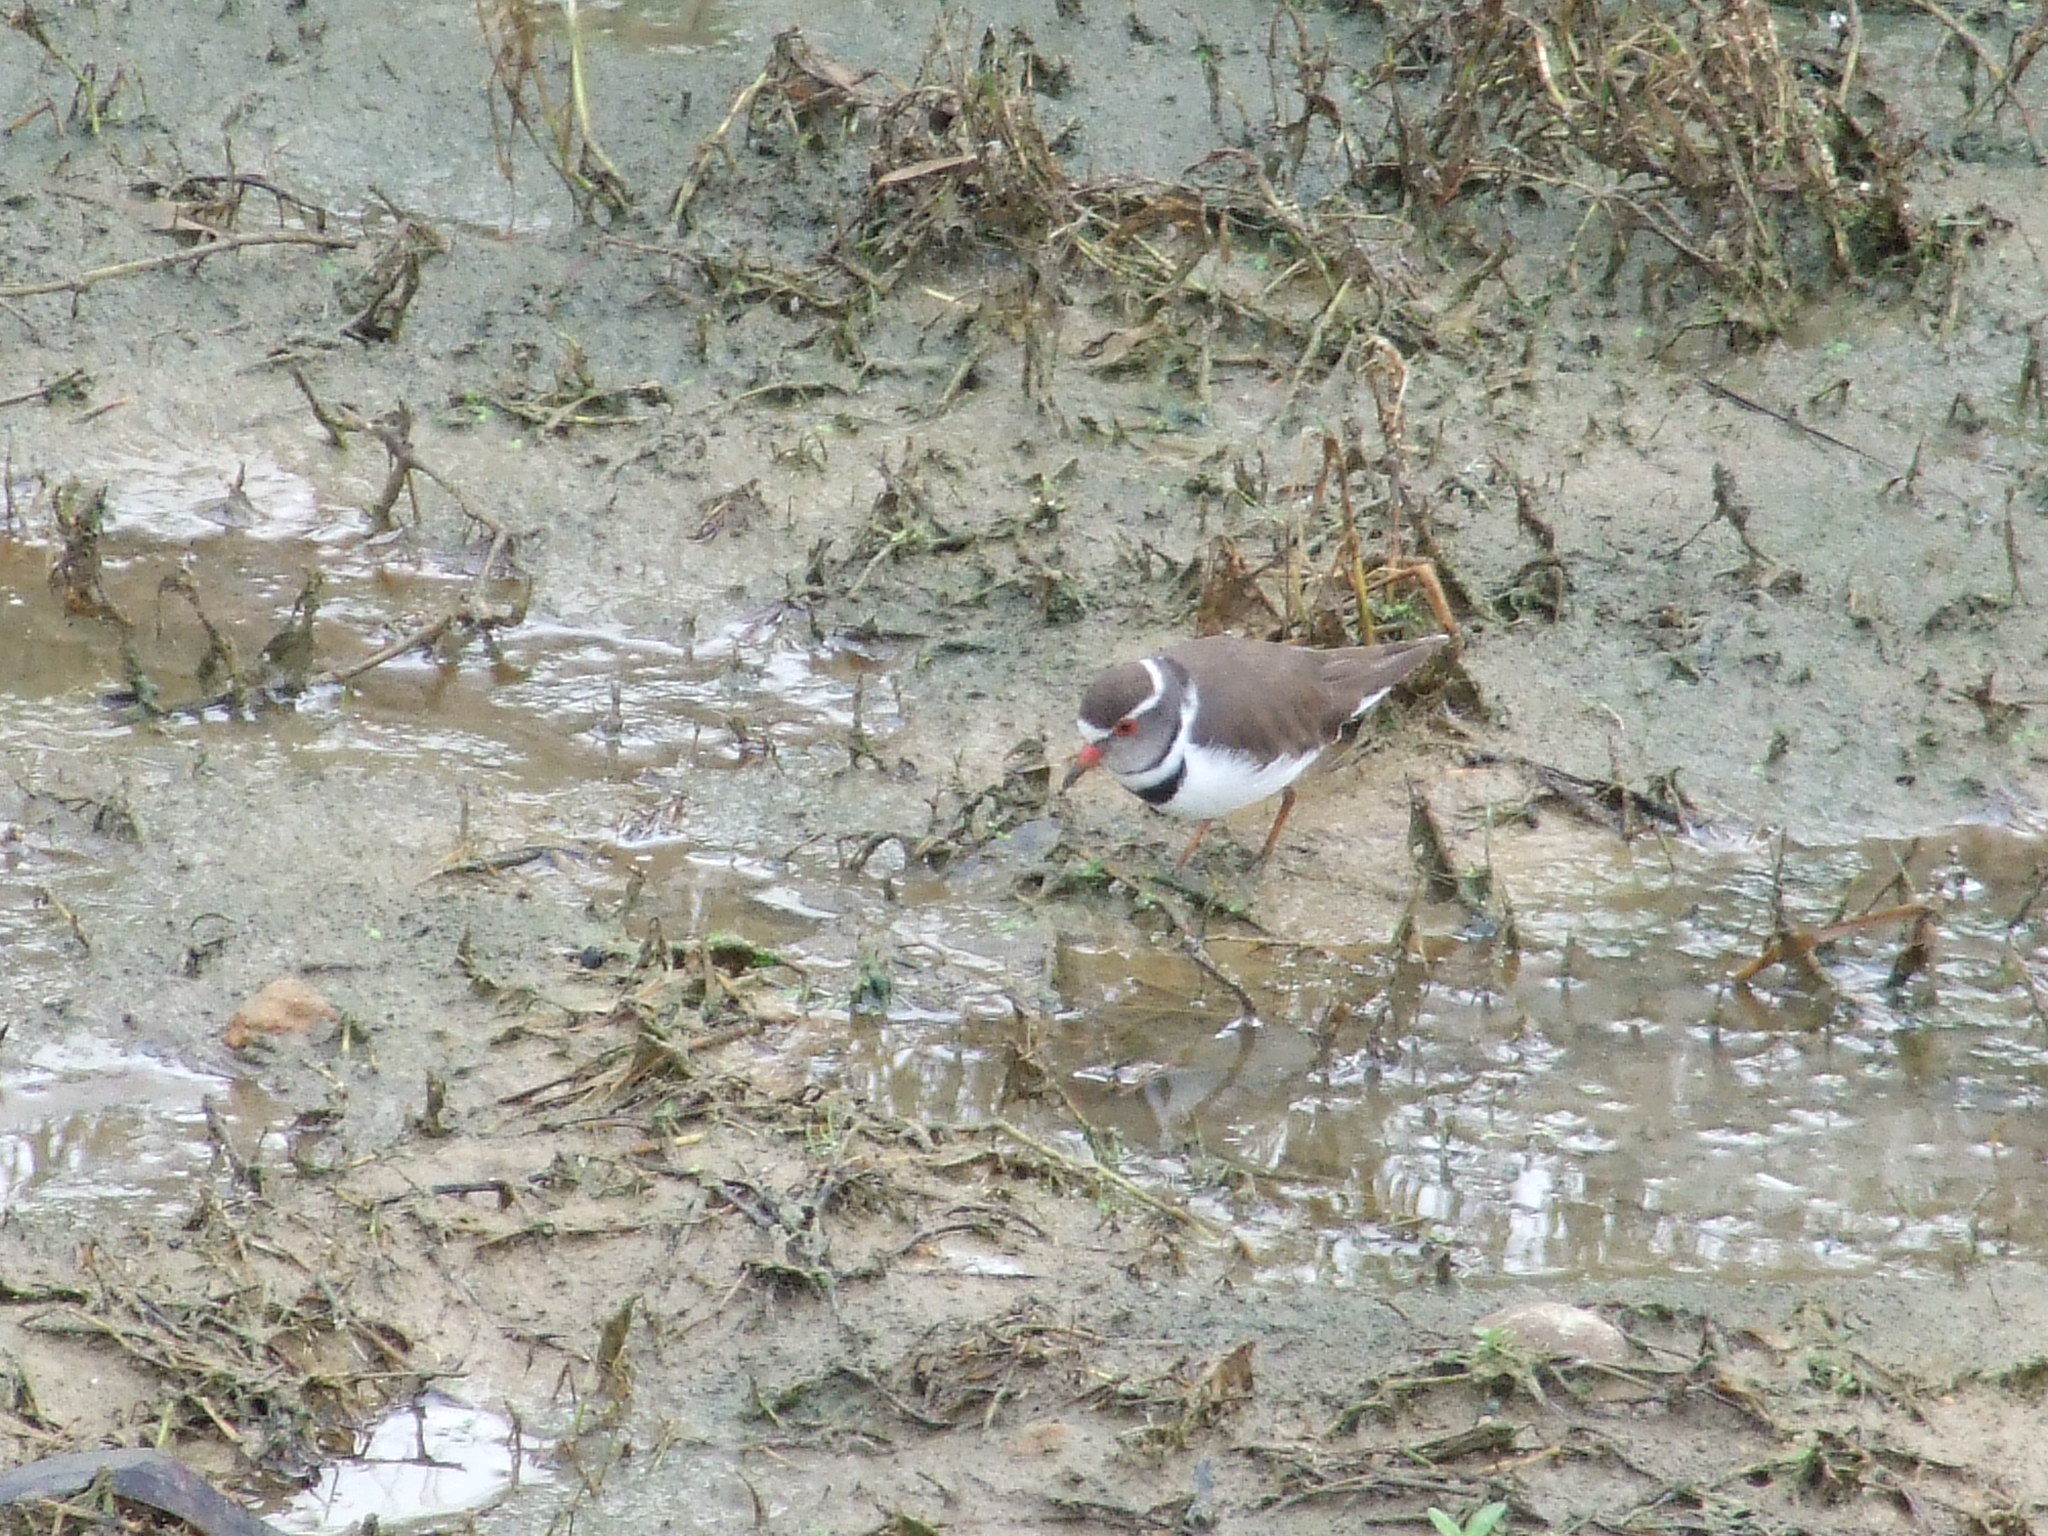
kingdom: Animalia
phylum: Chordata
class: Aves
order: Charadriiformes
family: Charadriidae
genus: Charadrius
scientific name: Charadrius tricollaris
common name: Three-banded plover
